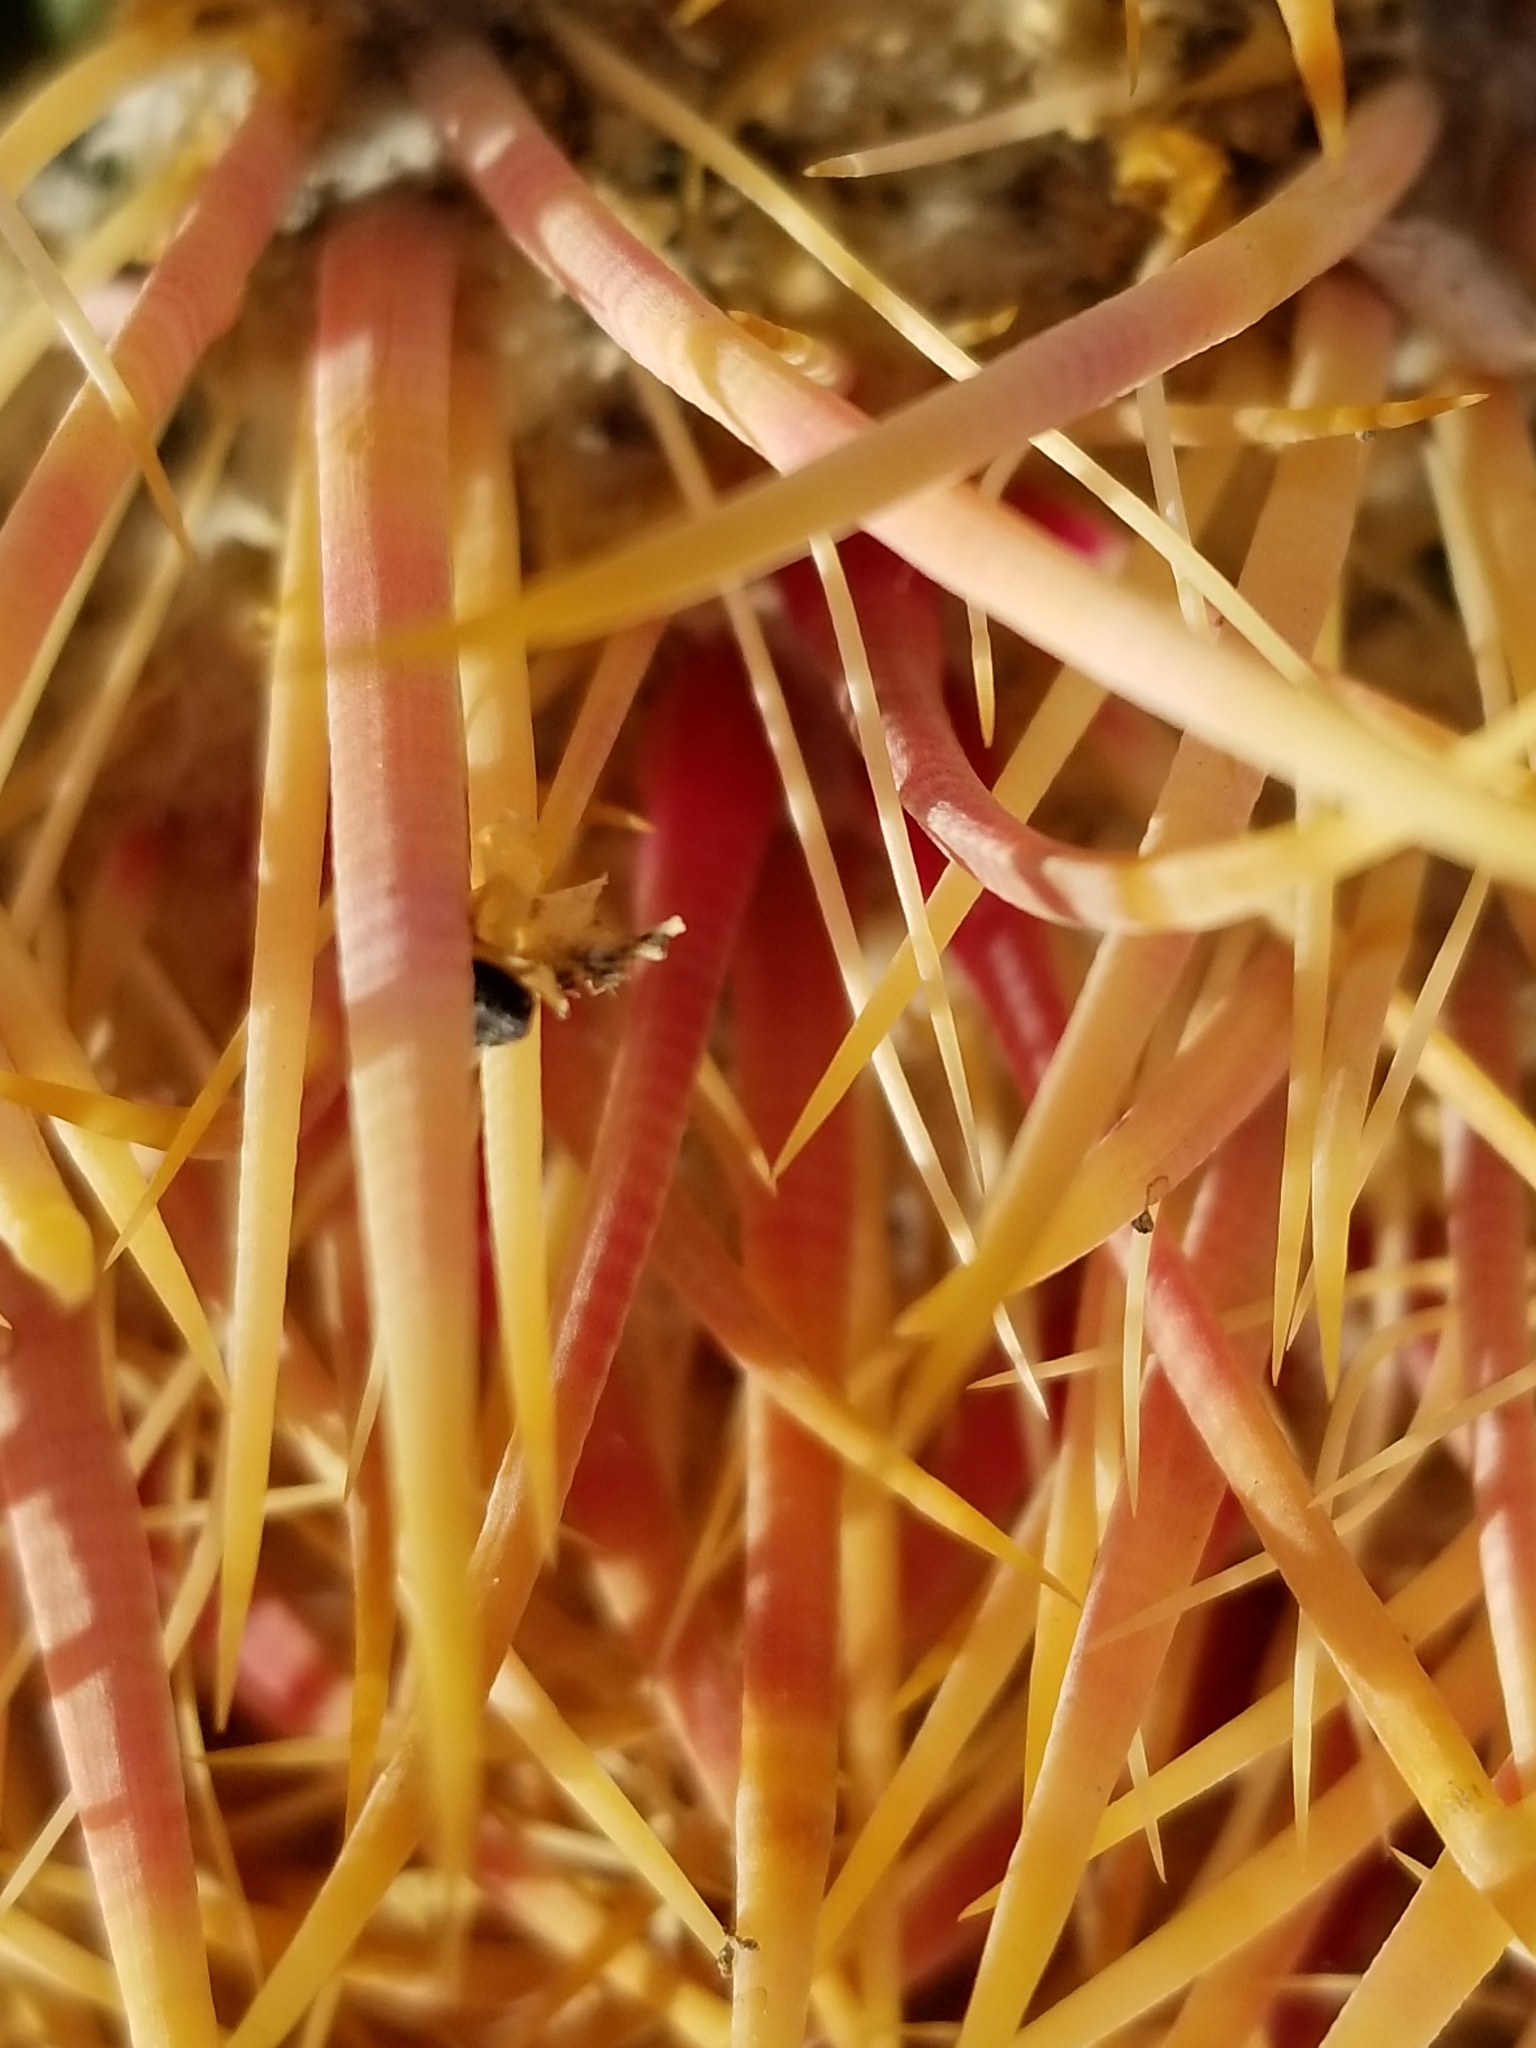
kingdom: Plantae
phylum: Tracheophyta
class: Magnoliopsida
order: Caryophyllales
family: Cactaceae
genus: Ferocactus
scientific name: Ferocactus cylindraceus
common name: California barrel cactus
